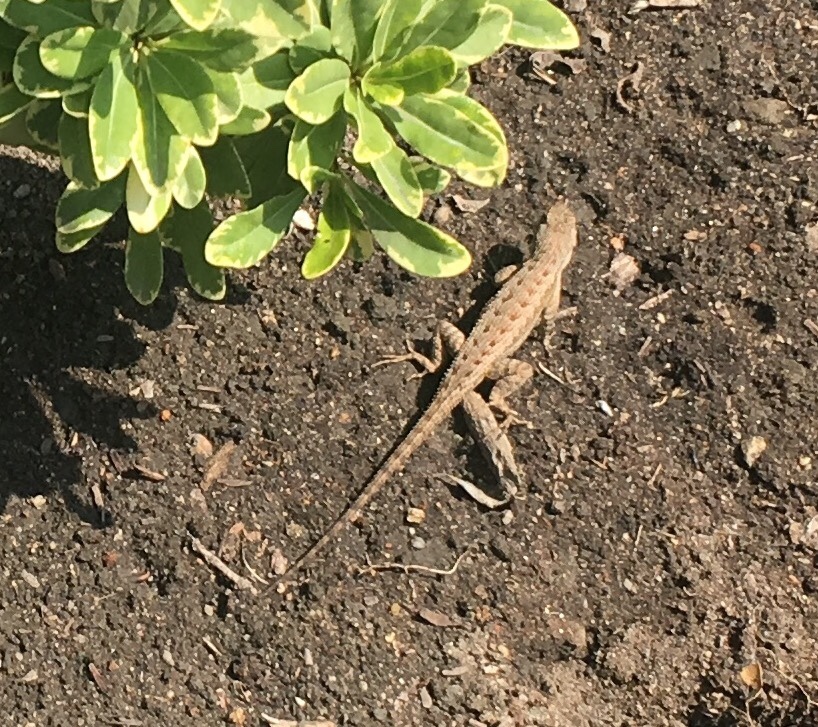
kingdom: Animalia
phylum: Chordata
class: Squamata
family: Phrynosomatidae
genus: Sceloporus
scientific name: Sceloporus occidentalis
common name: Western fence lizard
